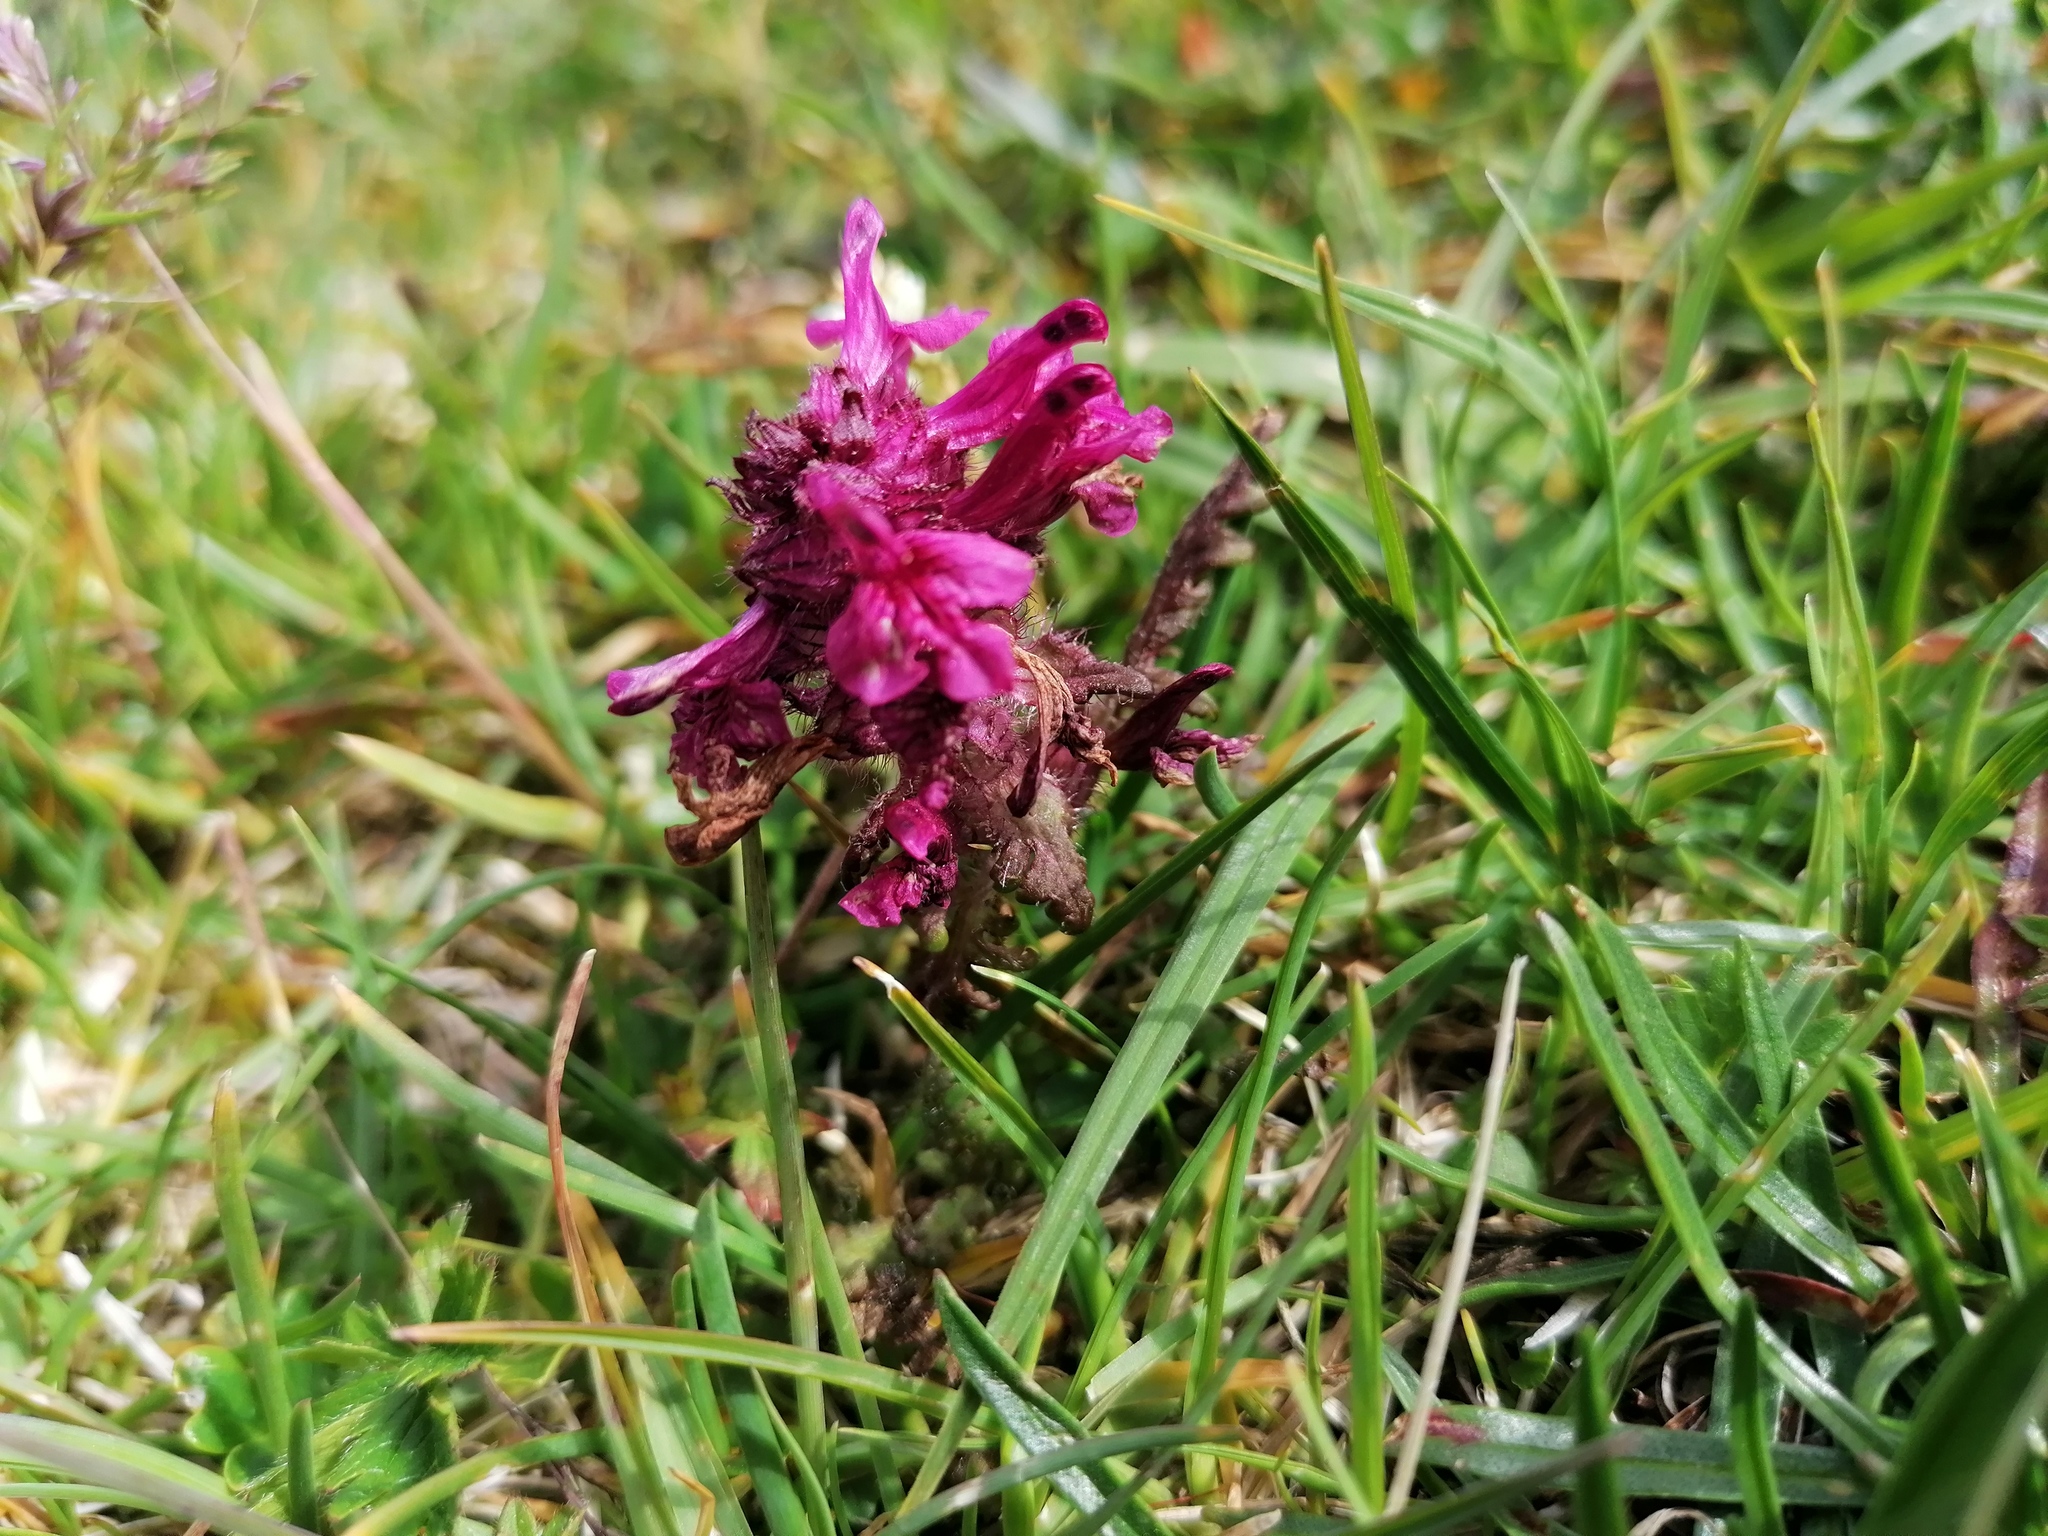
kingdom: Plantae
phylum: Tracheophyta
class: Magnoliopsida
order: Lamiales
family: Orobanchaceae
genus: Pedicularis
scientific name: Pedicularis verticillata
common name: Whorled lousewort
